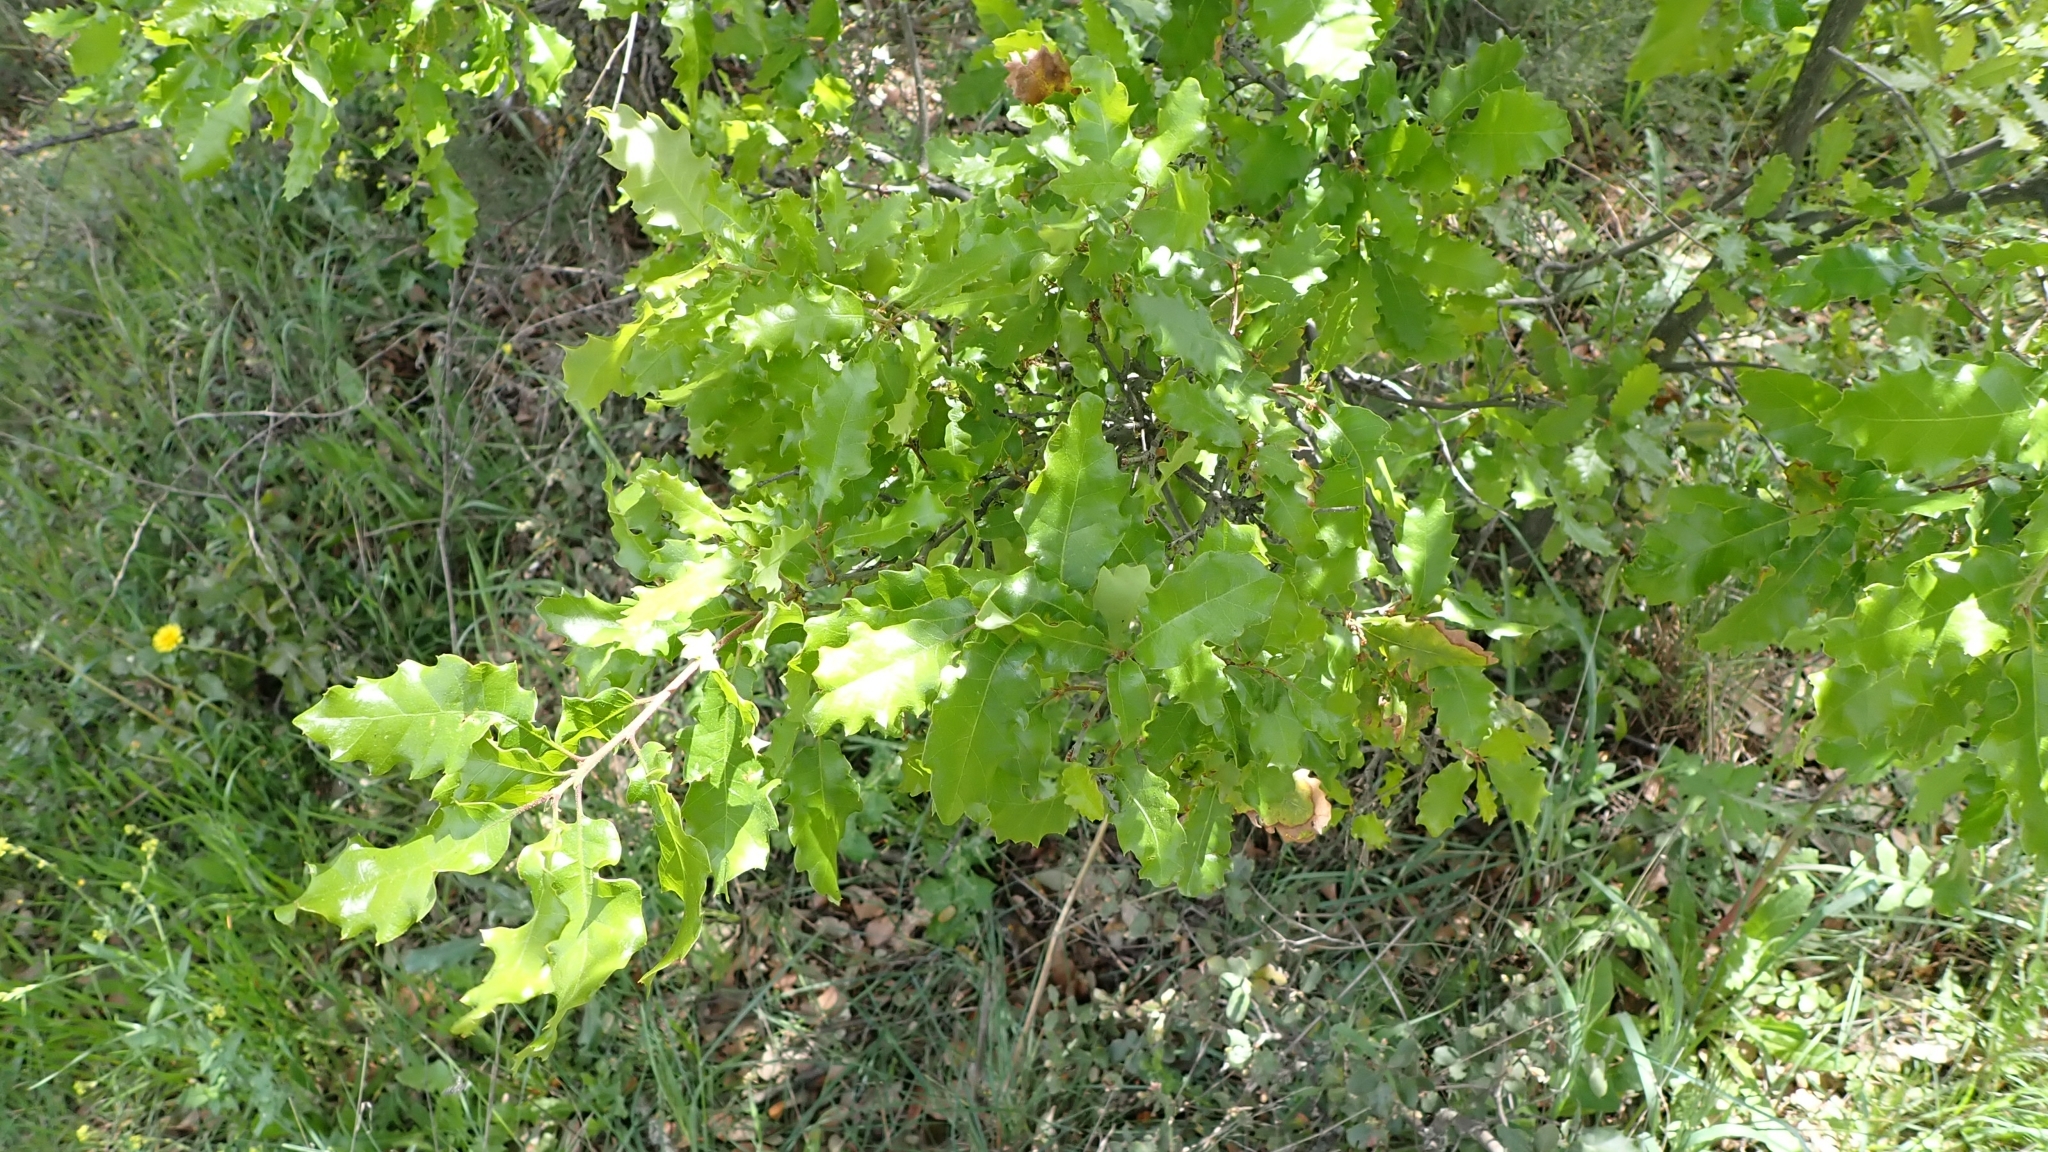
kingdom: Plantae
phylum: Tracheophyta
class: Magnoliopsida
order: Fagales
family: Fagaceae
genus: Quercus
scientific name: Quercus faginea
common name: Gall oak tree
